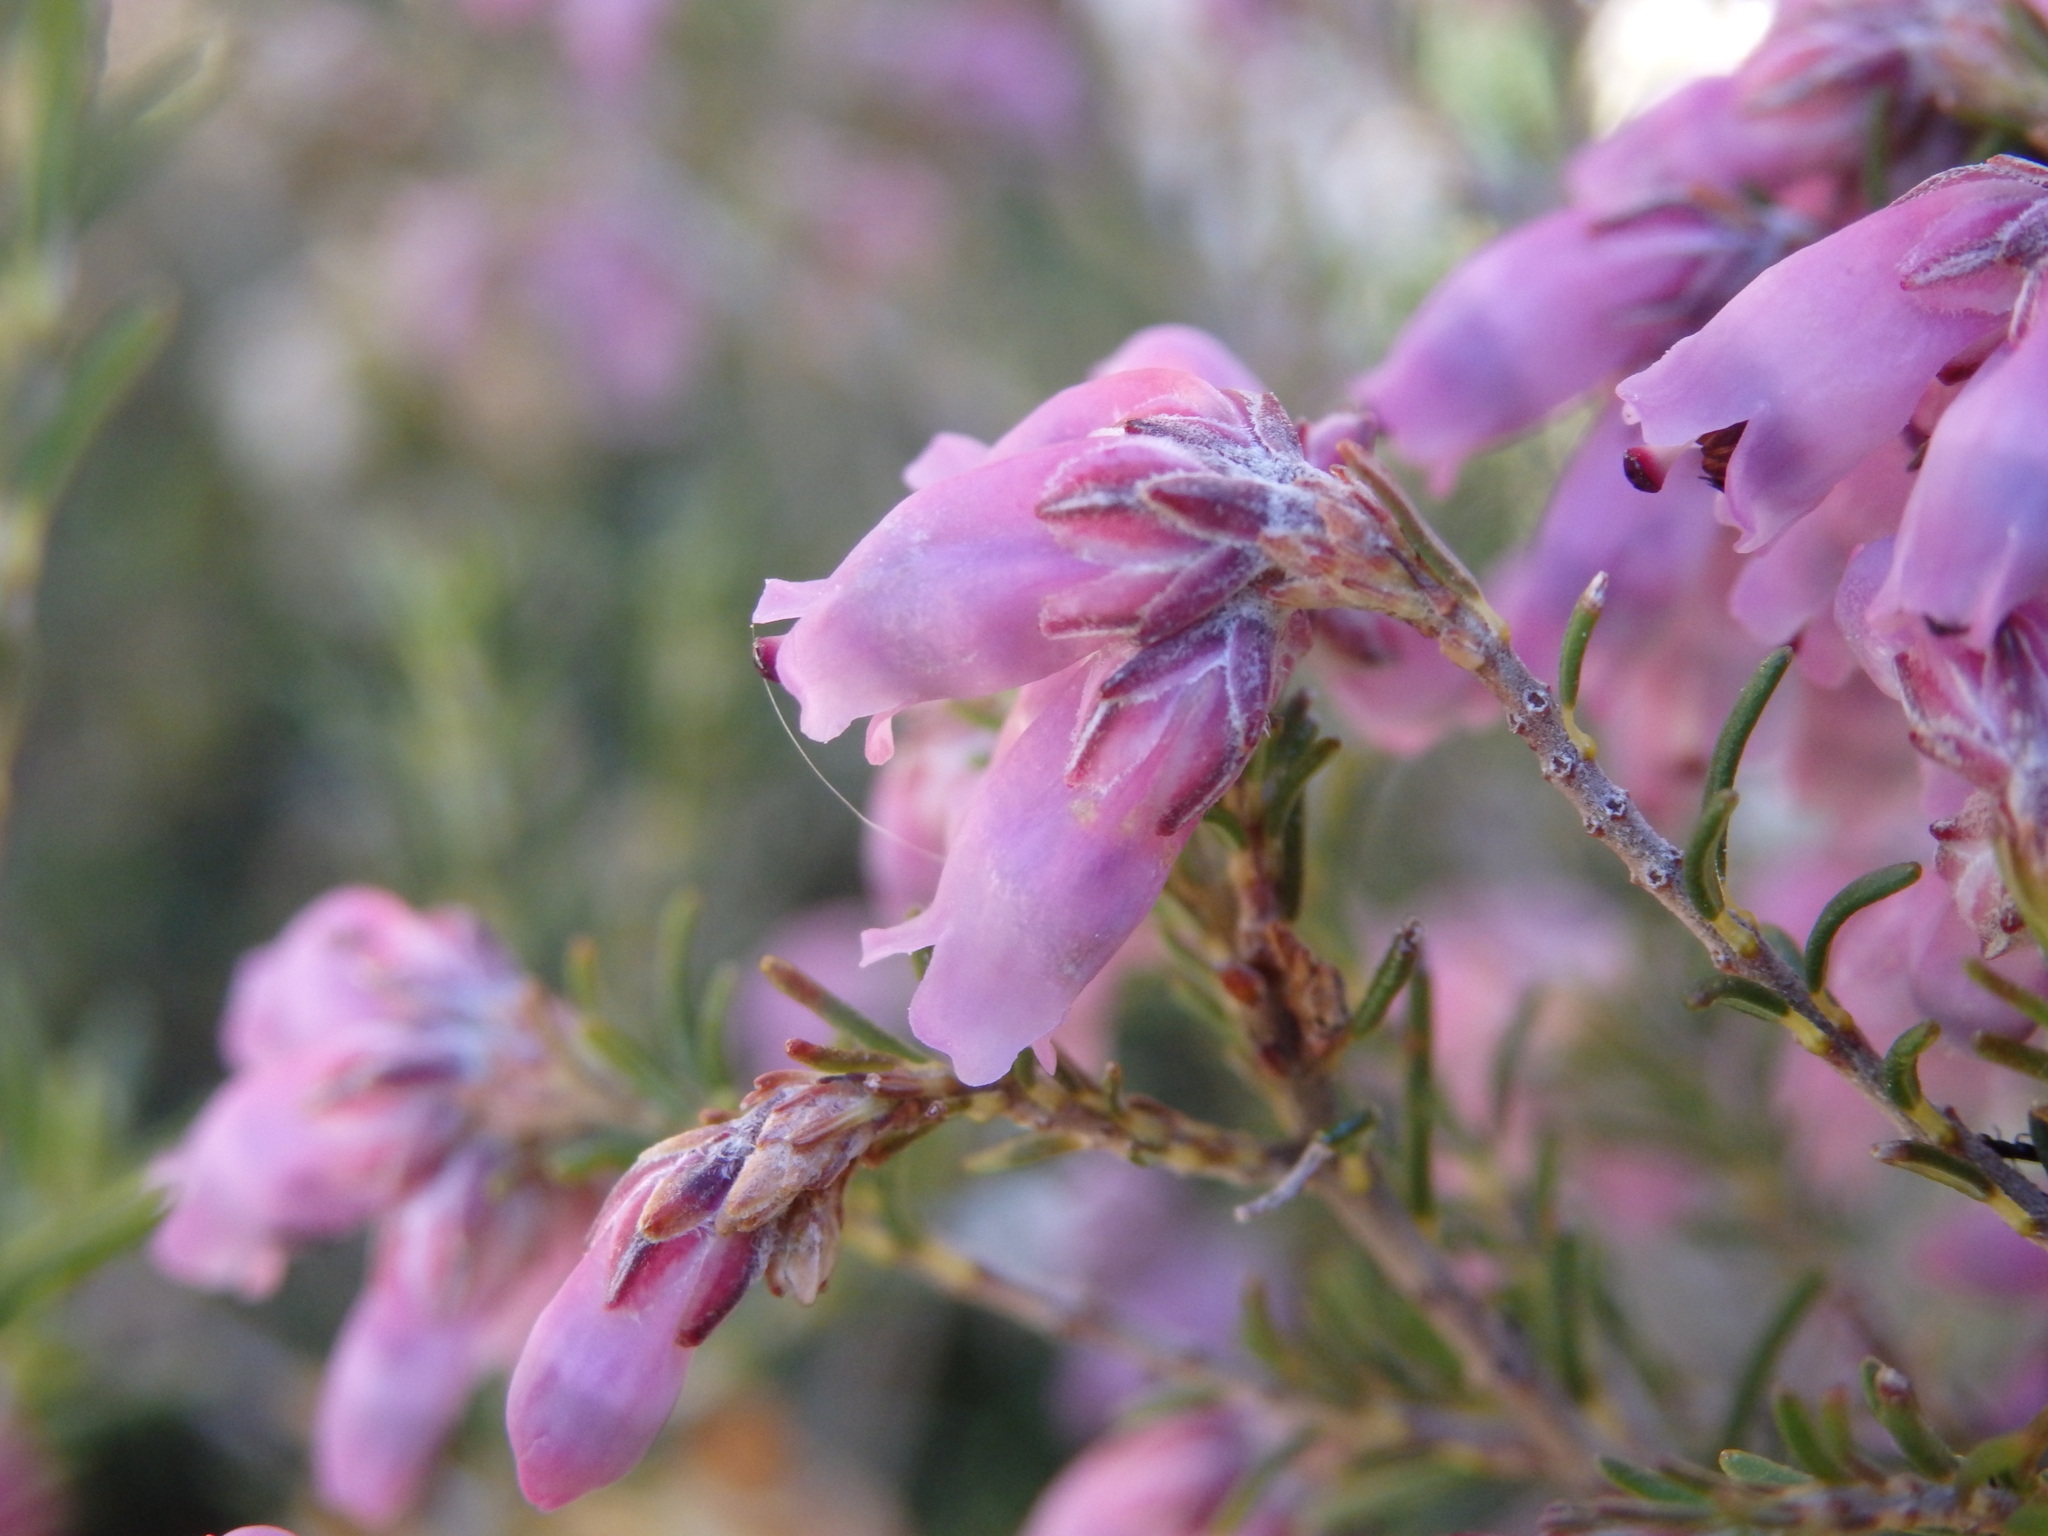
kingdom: Plantae
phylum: Tracheophyta
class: Magnoliopsida
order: Ericales
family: Ericaceae
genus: Erica
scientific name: Erica australis
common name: Spanish heath
